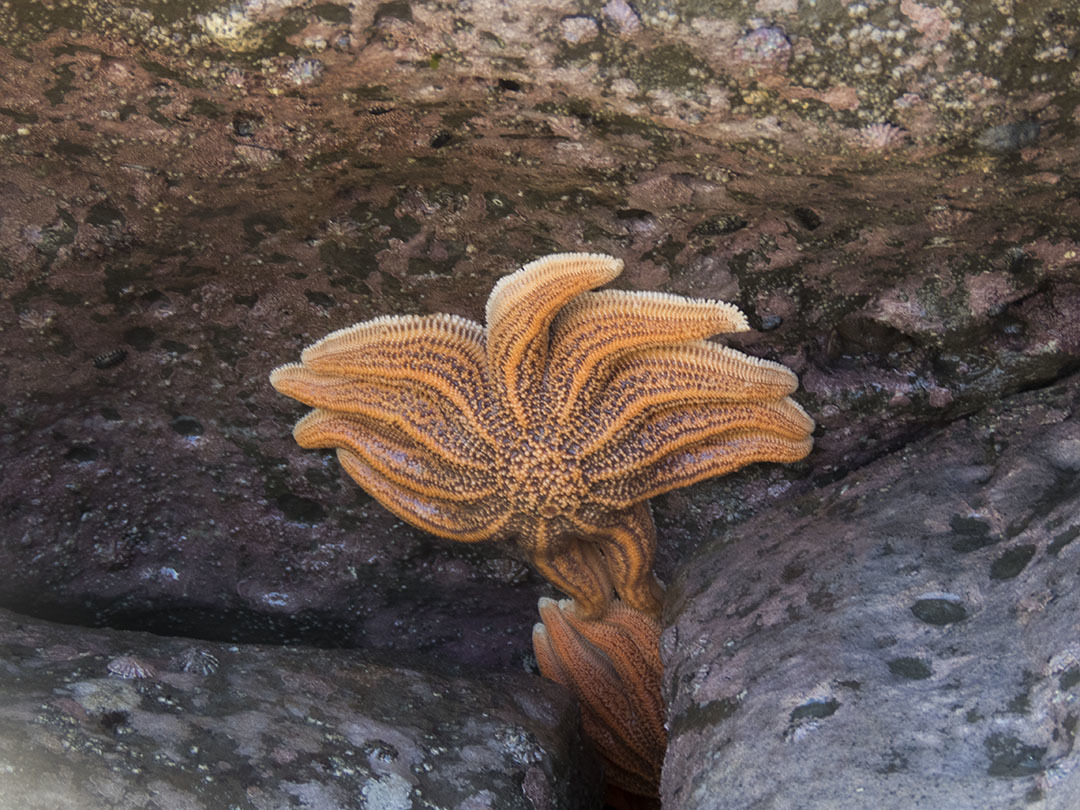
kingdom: Animalia
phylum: Echinodermata
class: Asteroidea
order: Forcipulatida
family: Stichasteridae
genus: Stichaster
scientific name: Stichaster australis
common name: Reef starfish
